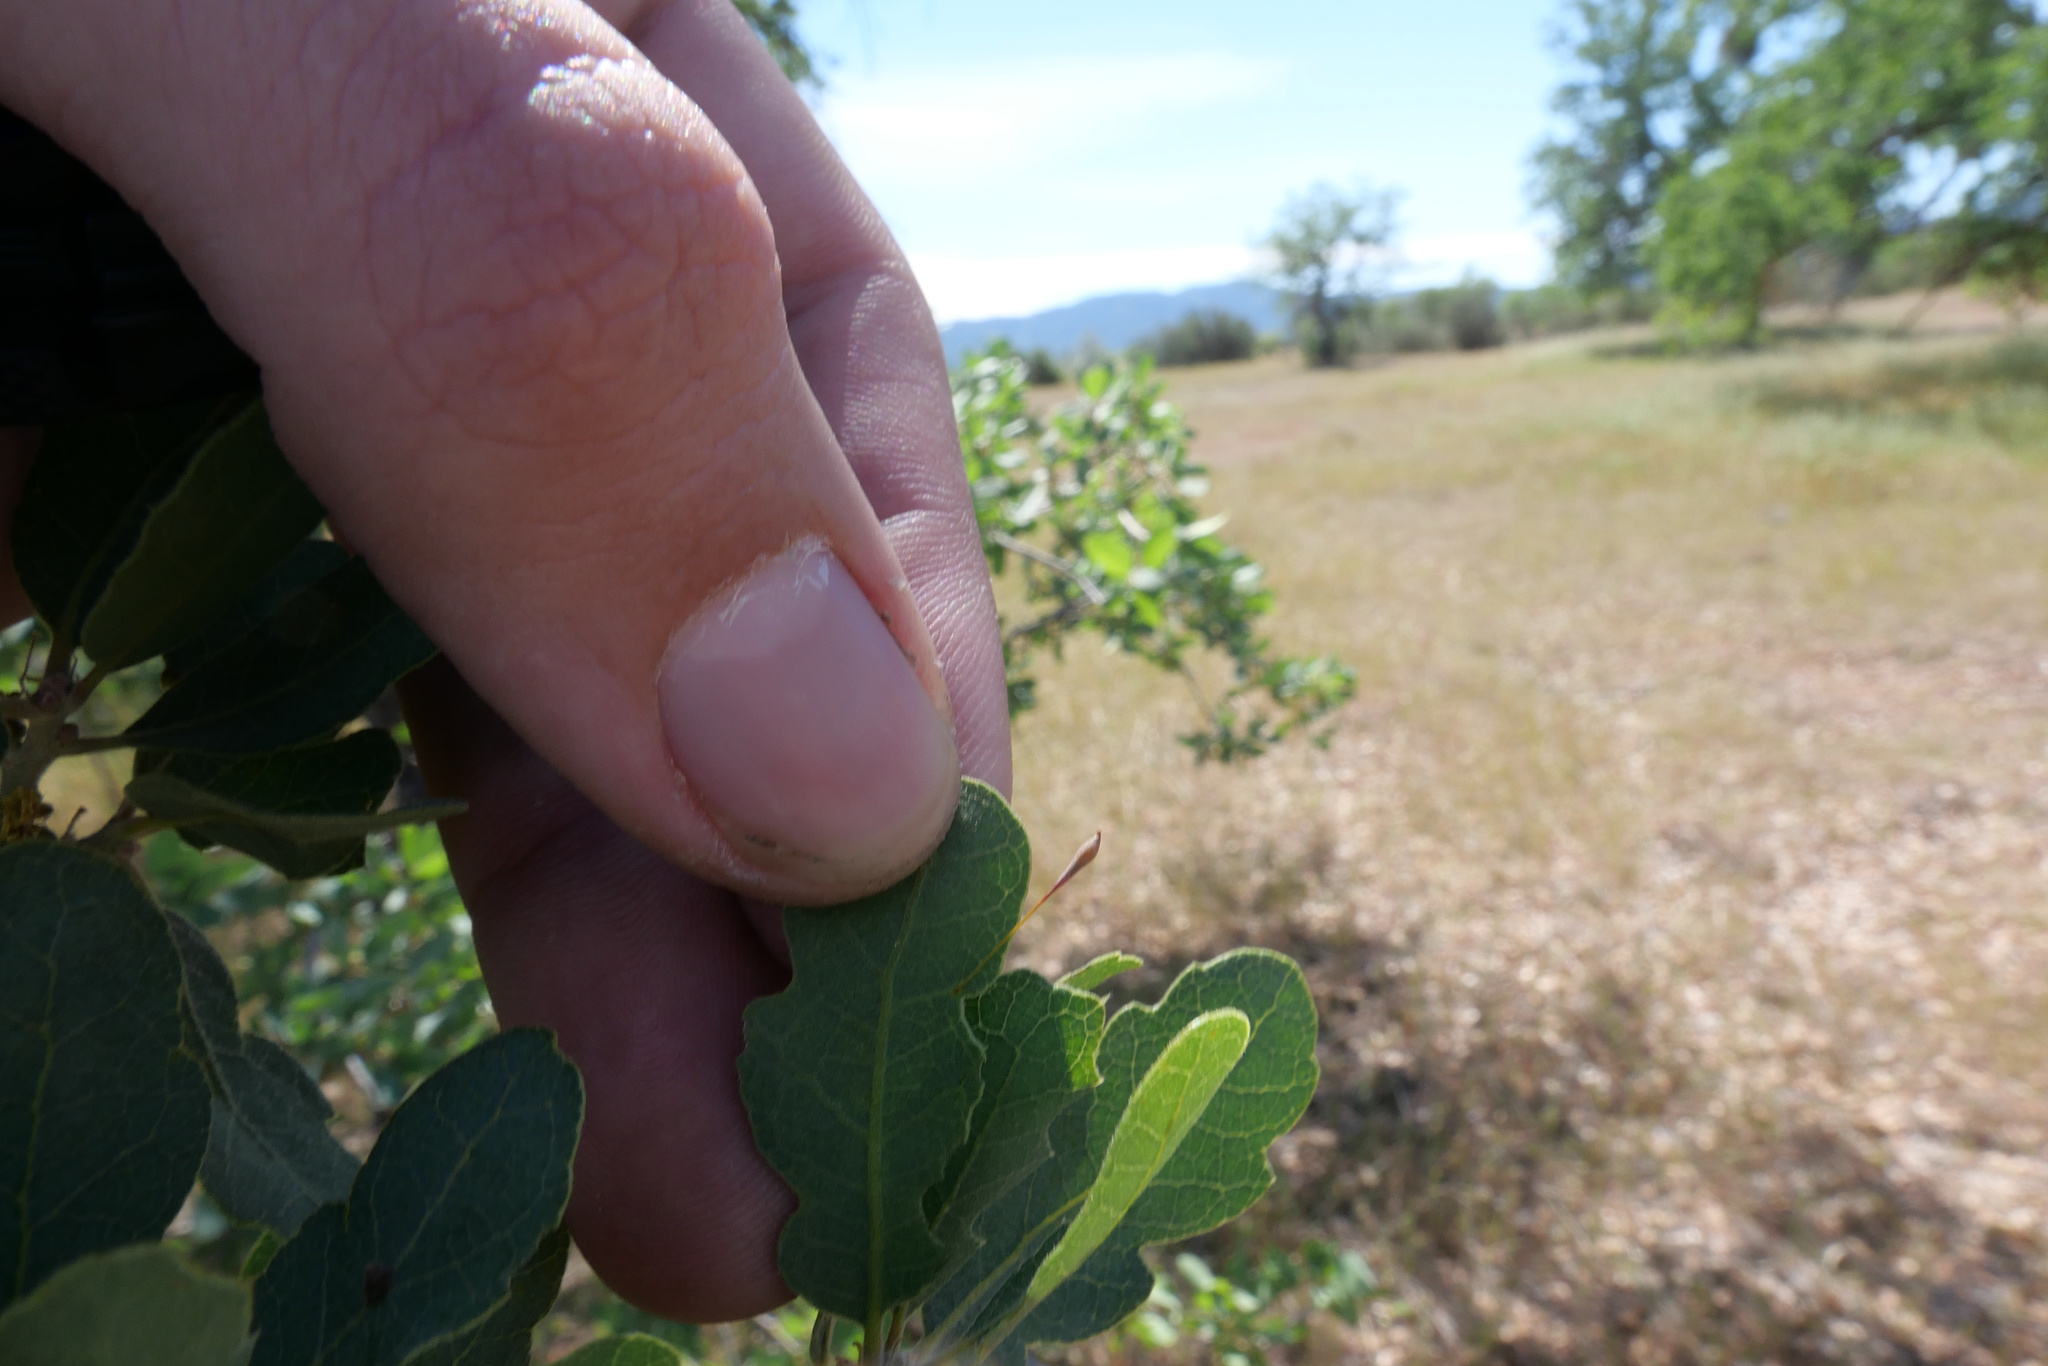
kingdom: Animalia
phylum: Arthropoda
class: Insecta
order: Hymenoptera
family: Cynipidae
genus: Andricus
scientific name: Andricus
